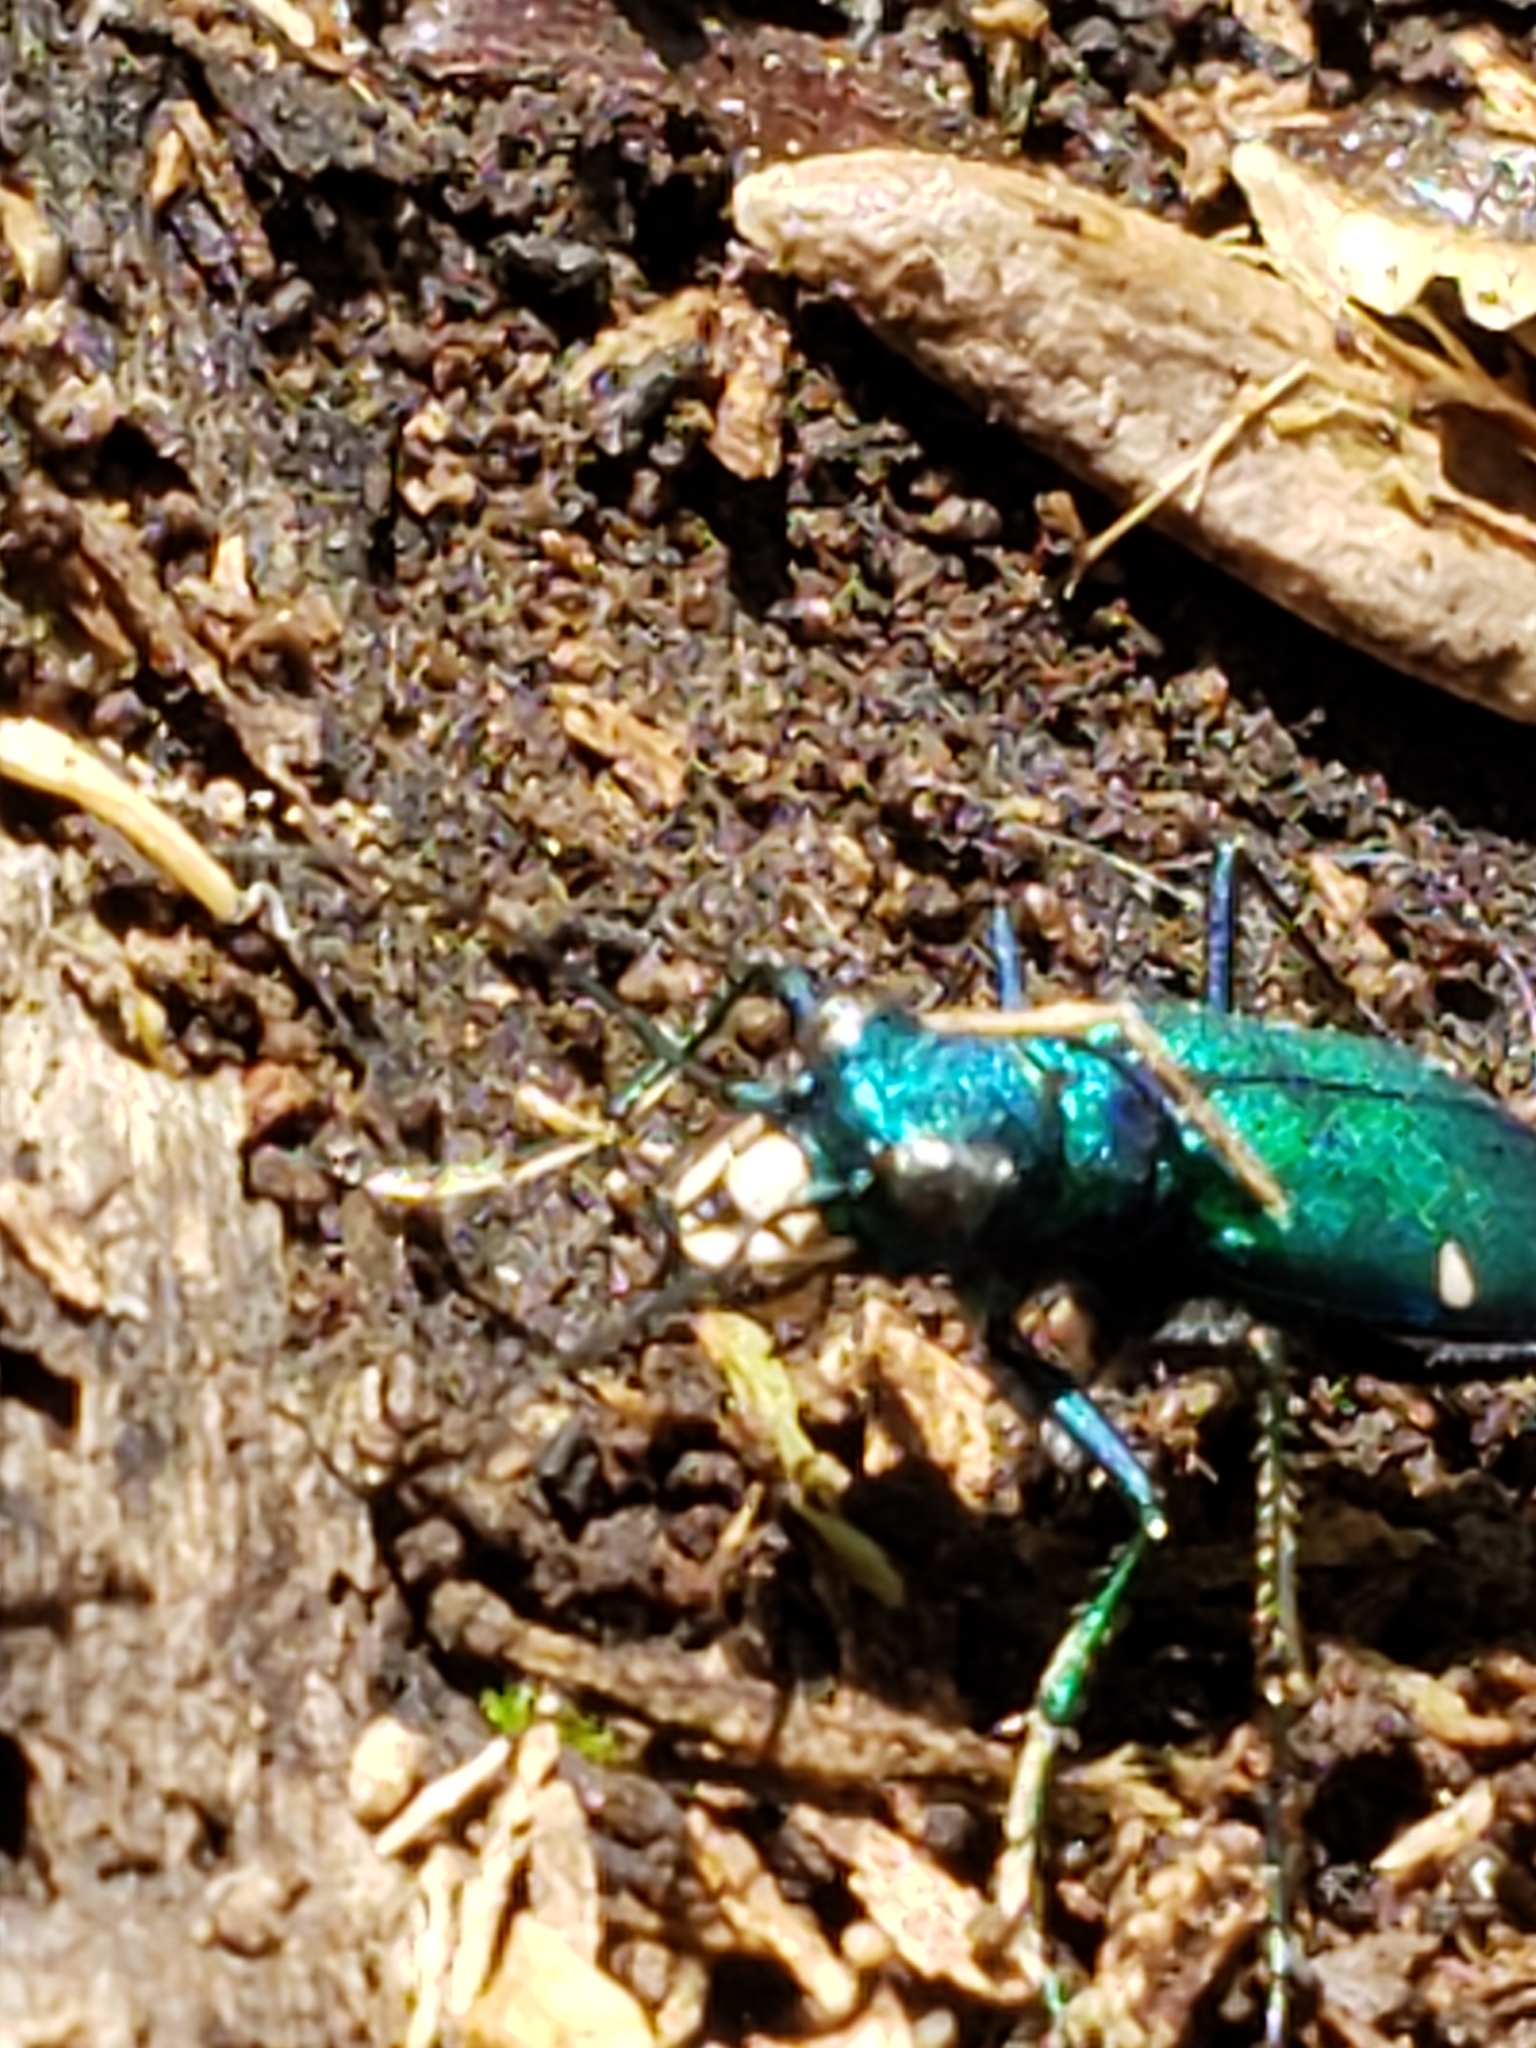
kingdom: Animalia
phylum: Arthropoda
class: Insecta
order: Coleoptera
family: Carabidae
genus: Cicindela
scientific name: Cicindela sexguttata
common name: Six-spotted tiger beetle
